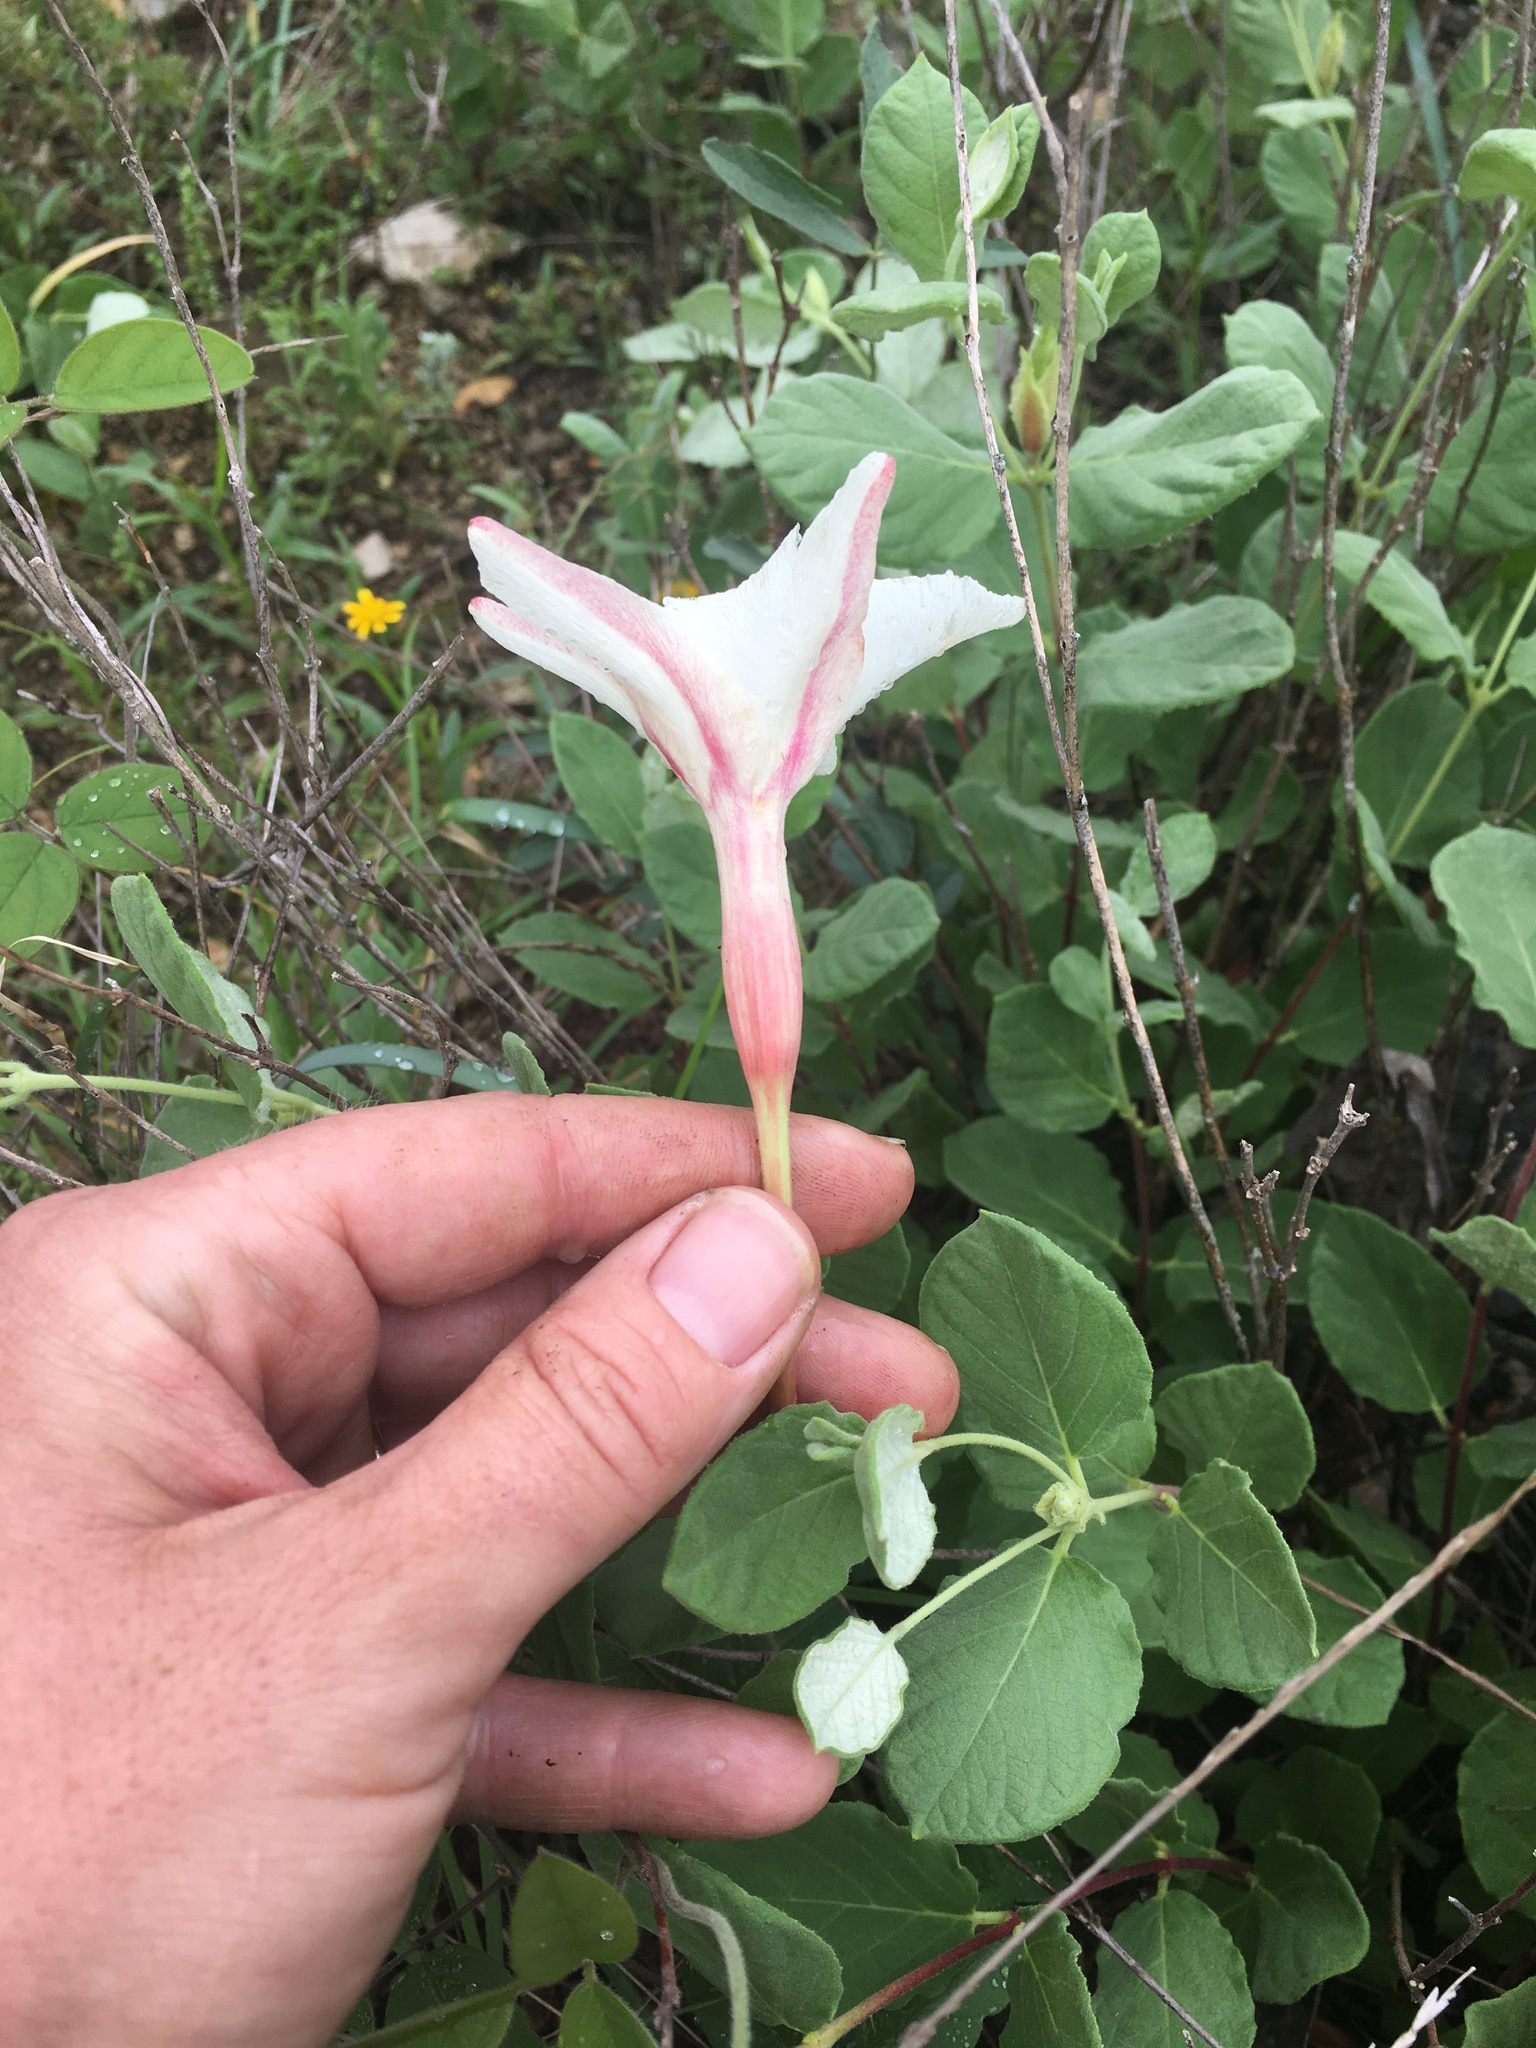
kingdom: Plantae
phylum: Tracheophyta
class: Magnoliopsida
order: Gentianales
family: Apocynaceae
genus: Mandevilla
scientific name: Mandevilla macrosiphon
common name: Plateau rocktrumpet
